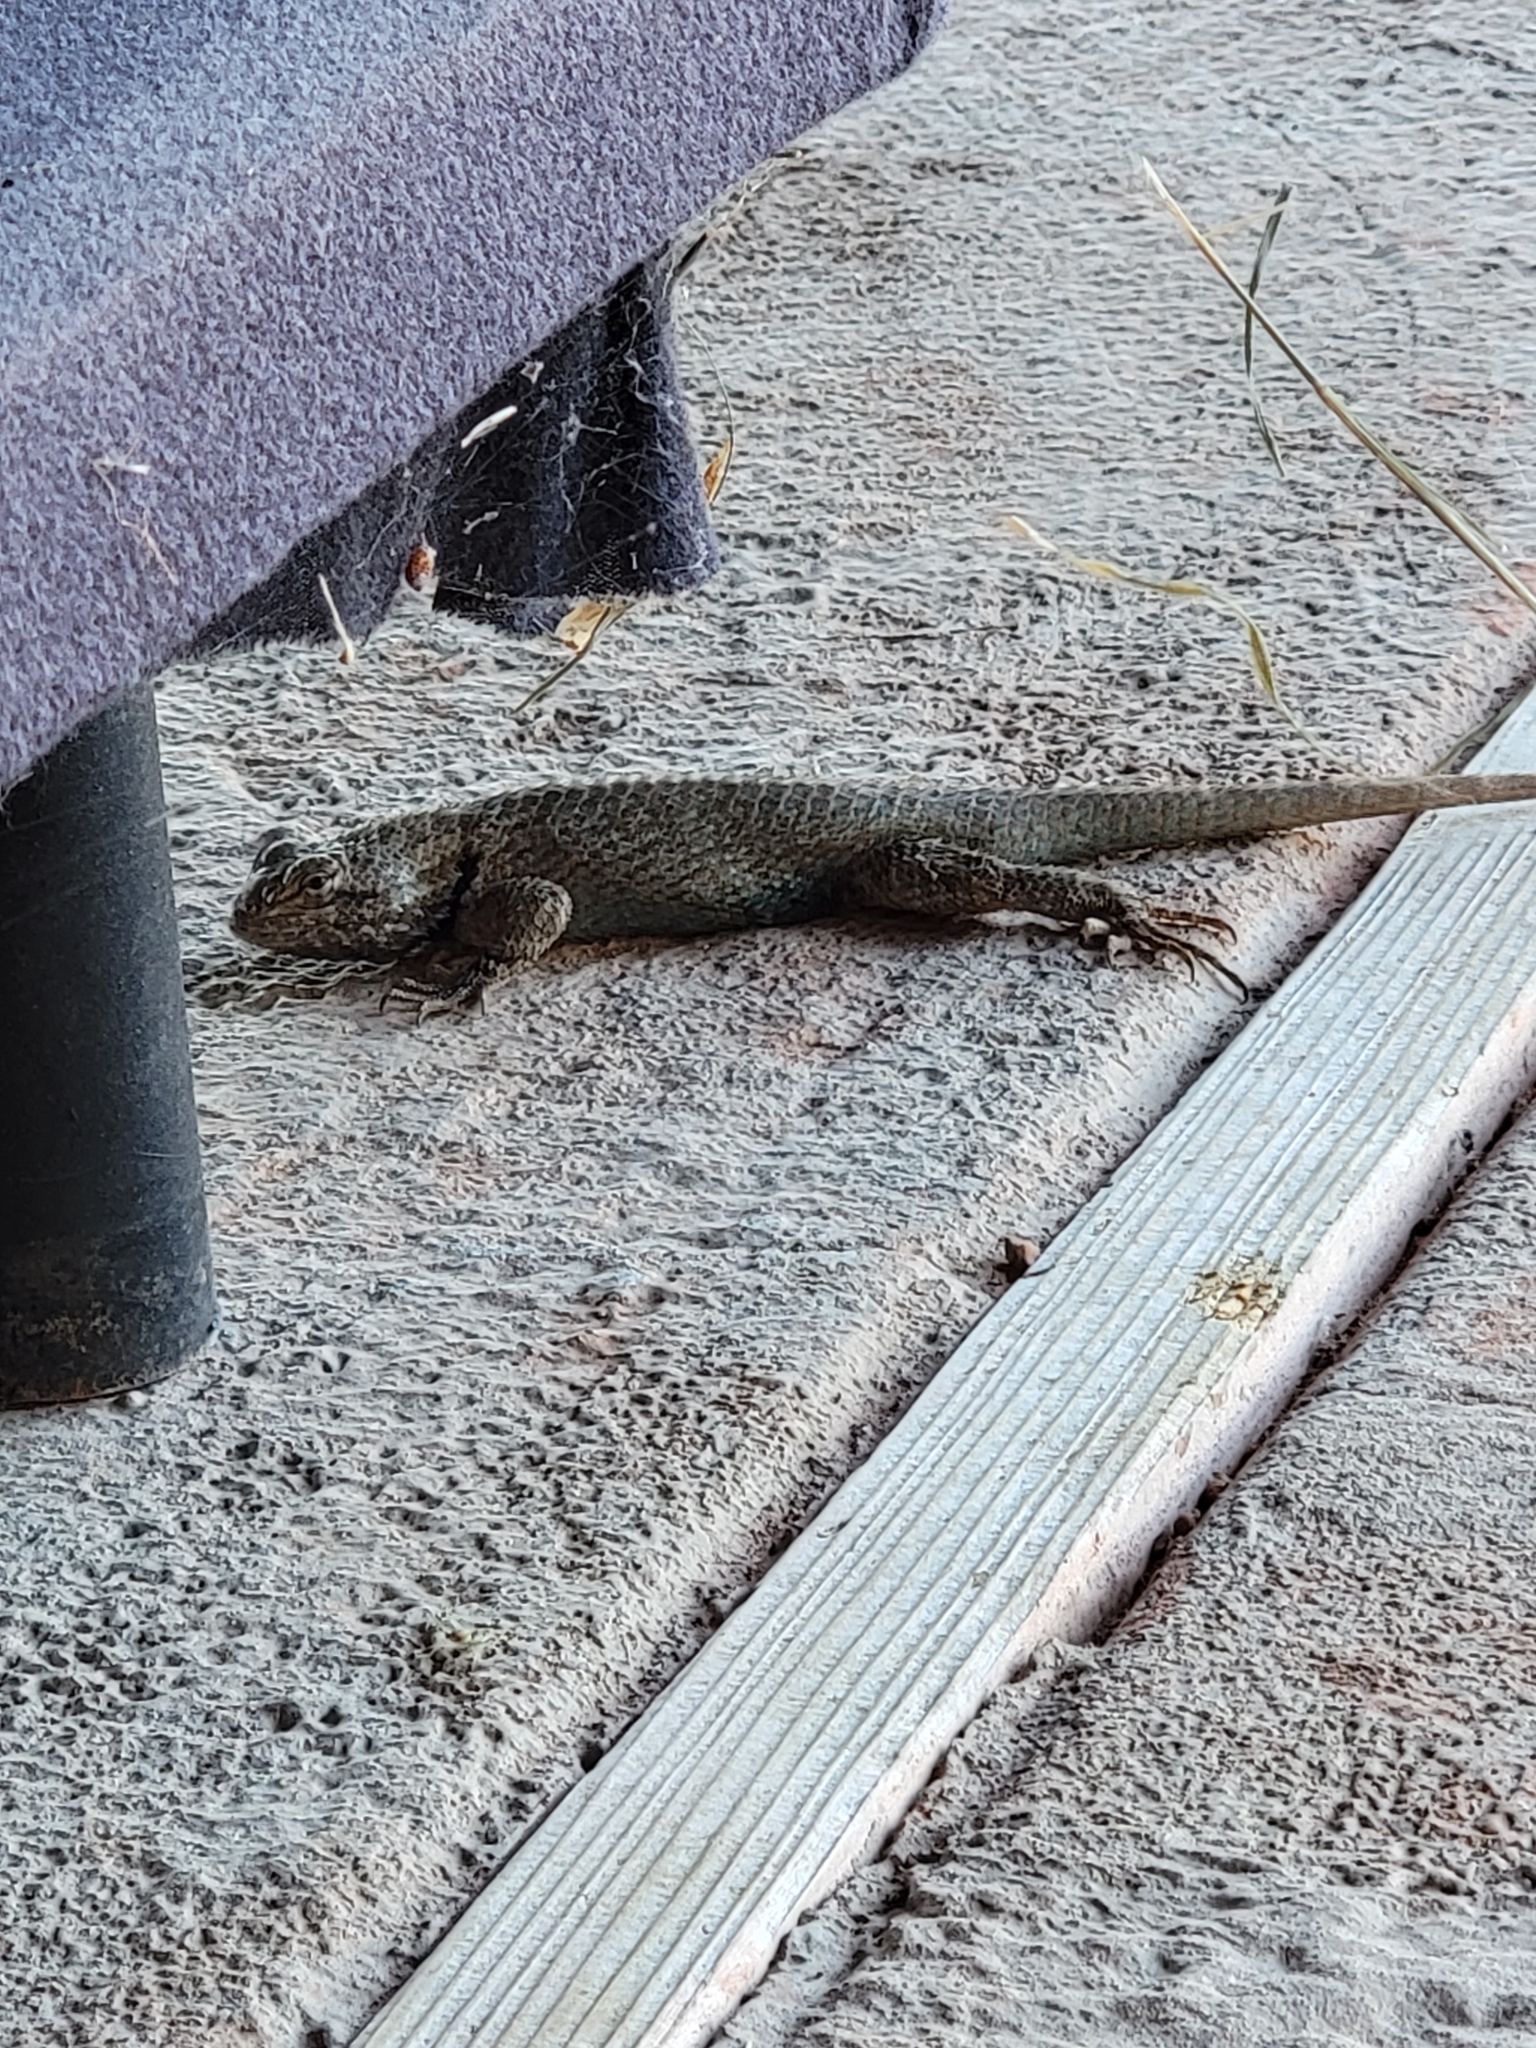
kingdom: Animalia
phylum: Chordata
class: Squamata
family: Phrynosomatidae
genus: Sceloporus
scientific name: Sceloporus clarkii
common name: Clark's spiny lizard
